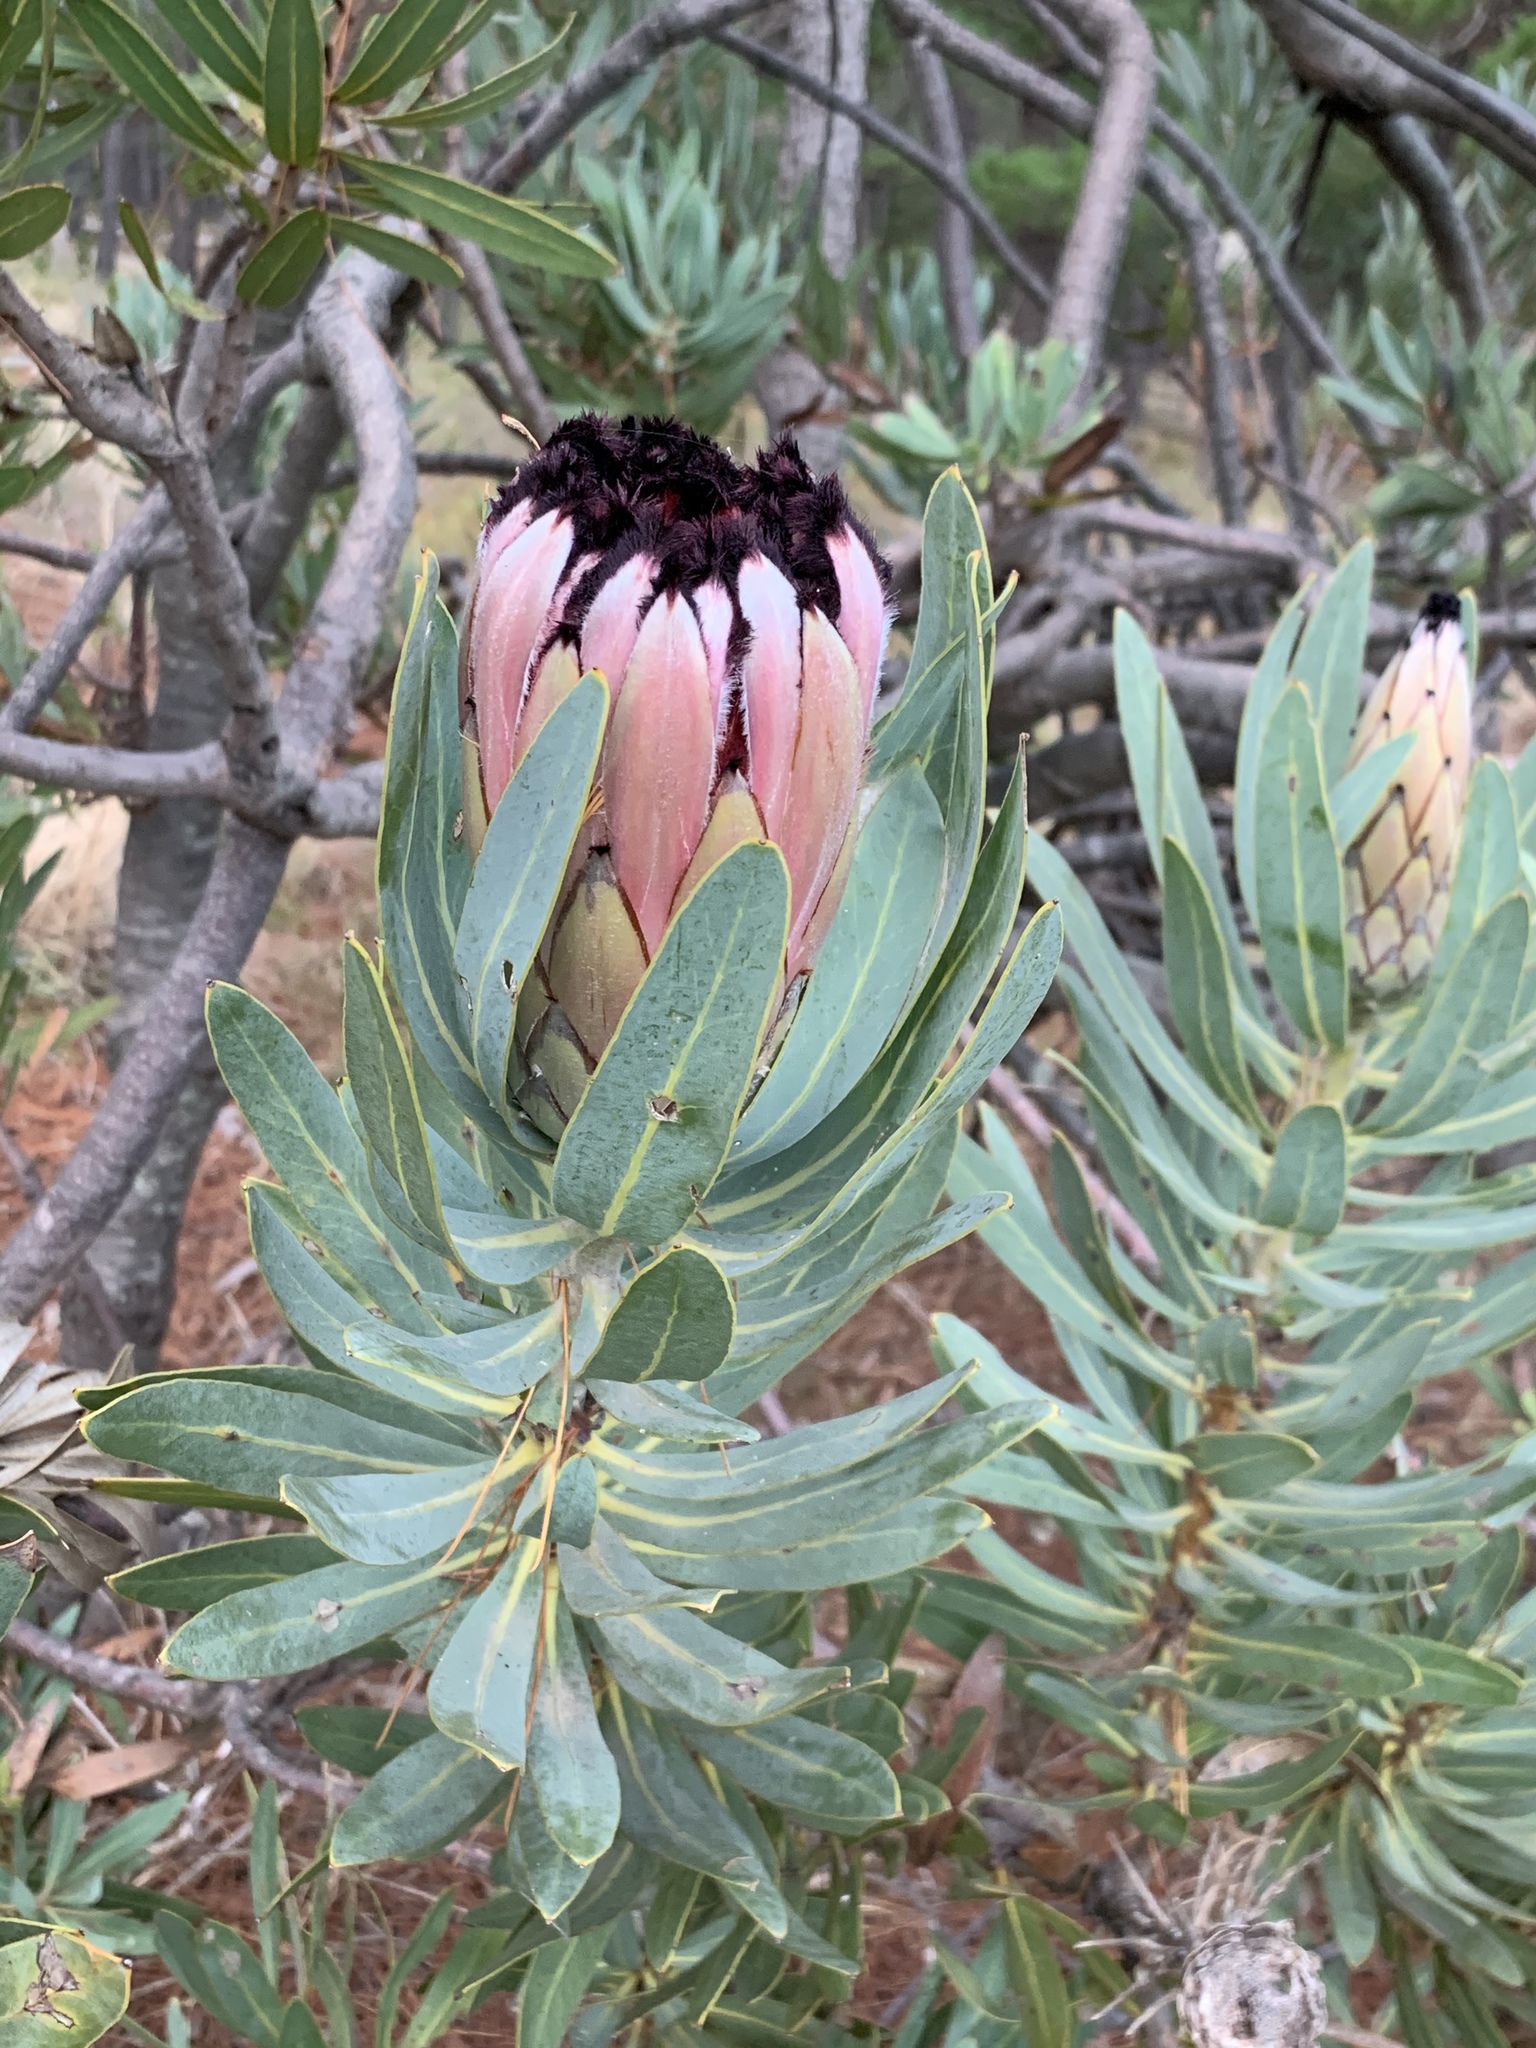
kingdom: Plantae
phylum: Tracheophyta
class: Magnoliopsida
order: Proteales
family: Proteaceae
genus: Protea
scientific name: Protea laurifolia
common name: Grey-leaf sugarbsh
